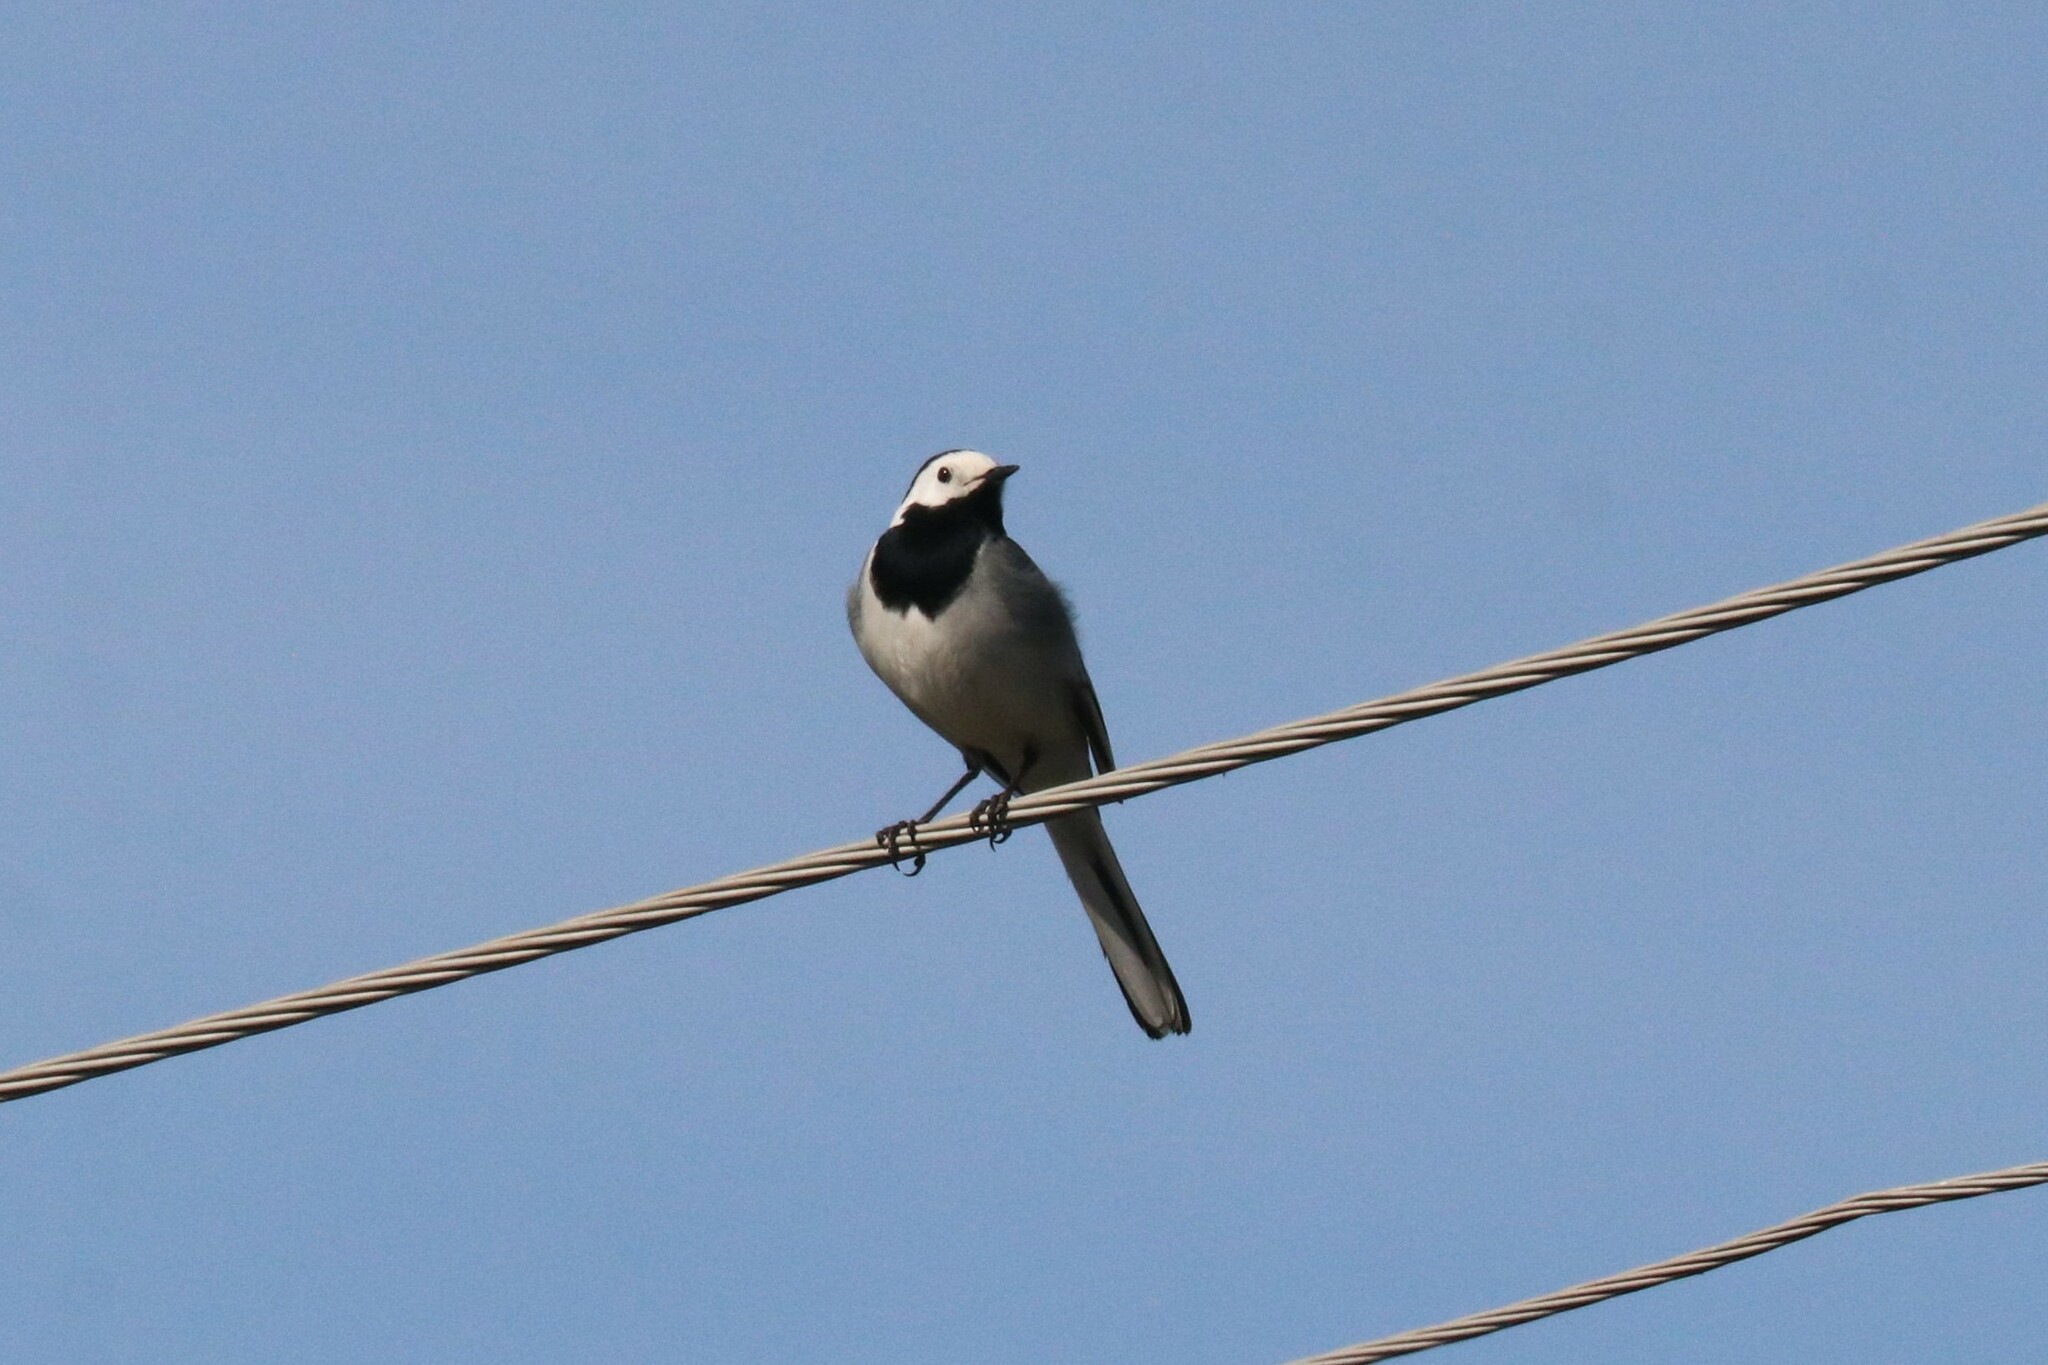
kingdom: Animalia
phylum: Chordata
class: Aves
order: Passeriformes
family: Motacillidae
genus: Motacilla
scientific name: Motacilla alba
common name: White wagtail
